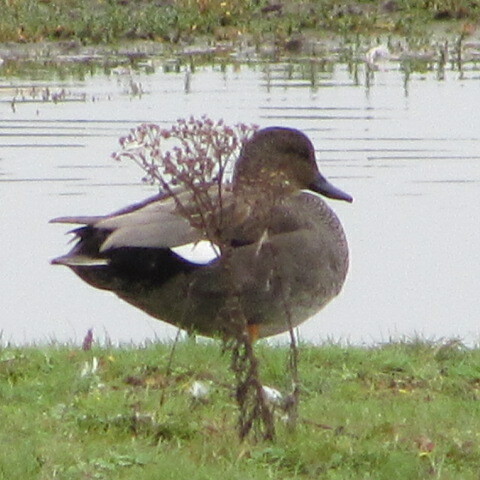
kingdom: Animalia
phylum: Chordata
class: Aves
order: Anseriformes
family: Anatidae
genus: Mareca
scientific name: Mareca strepera
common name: Gadwall
